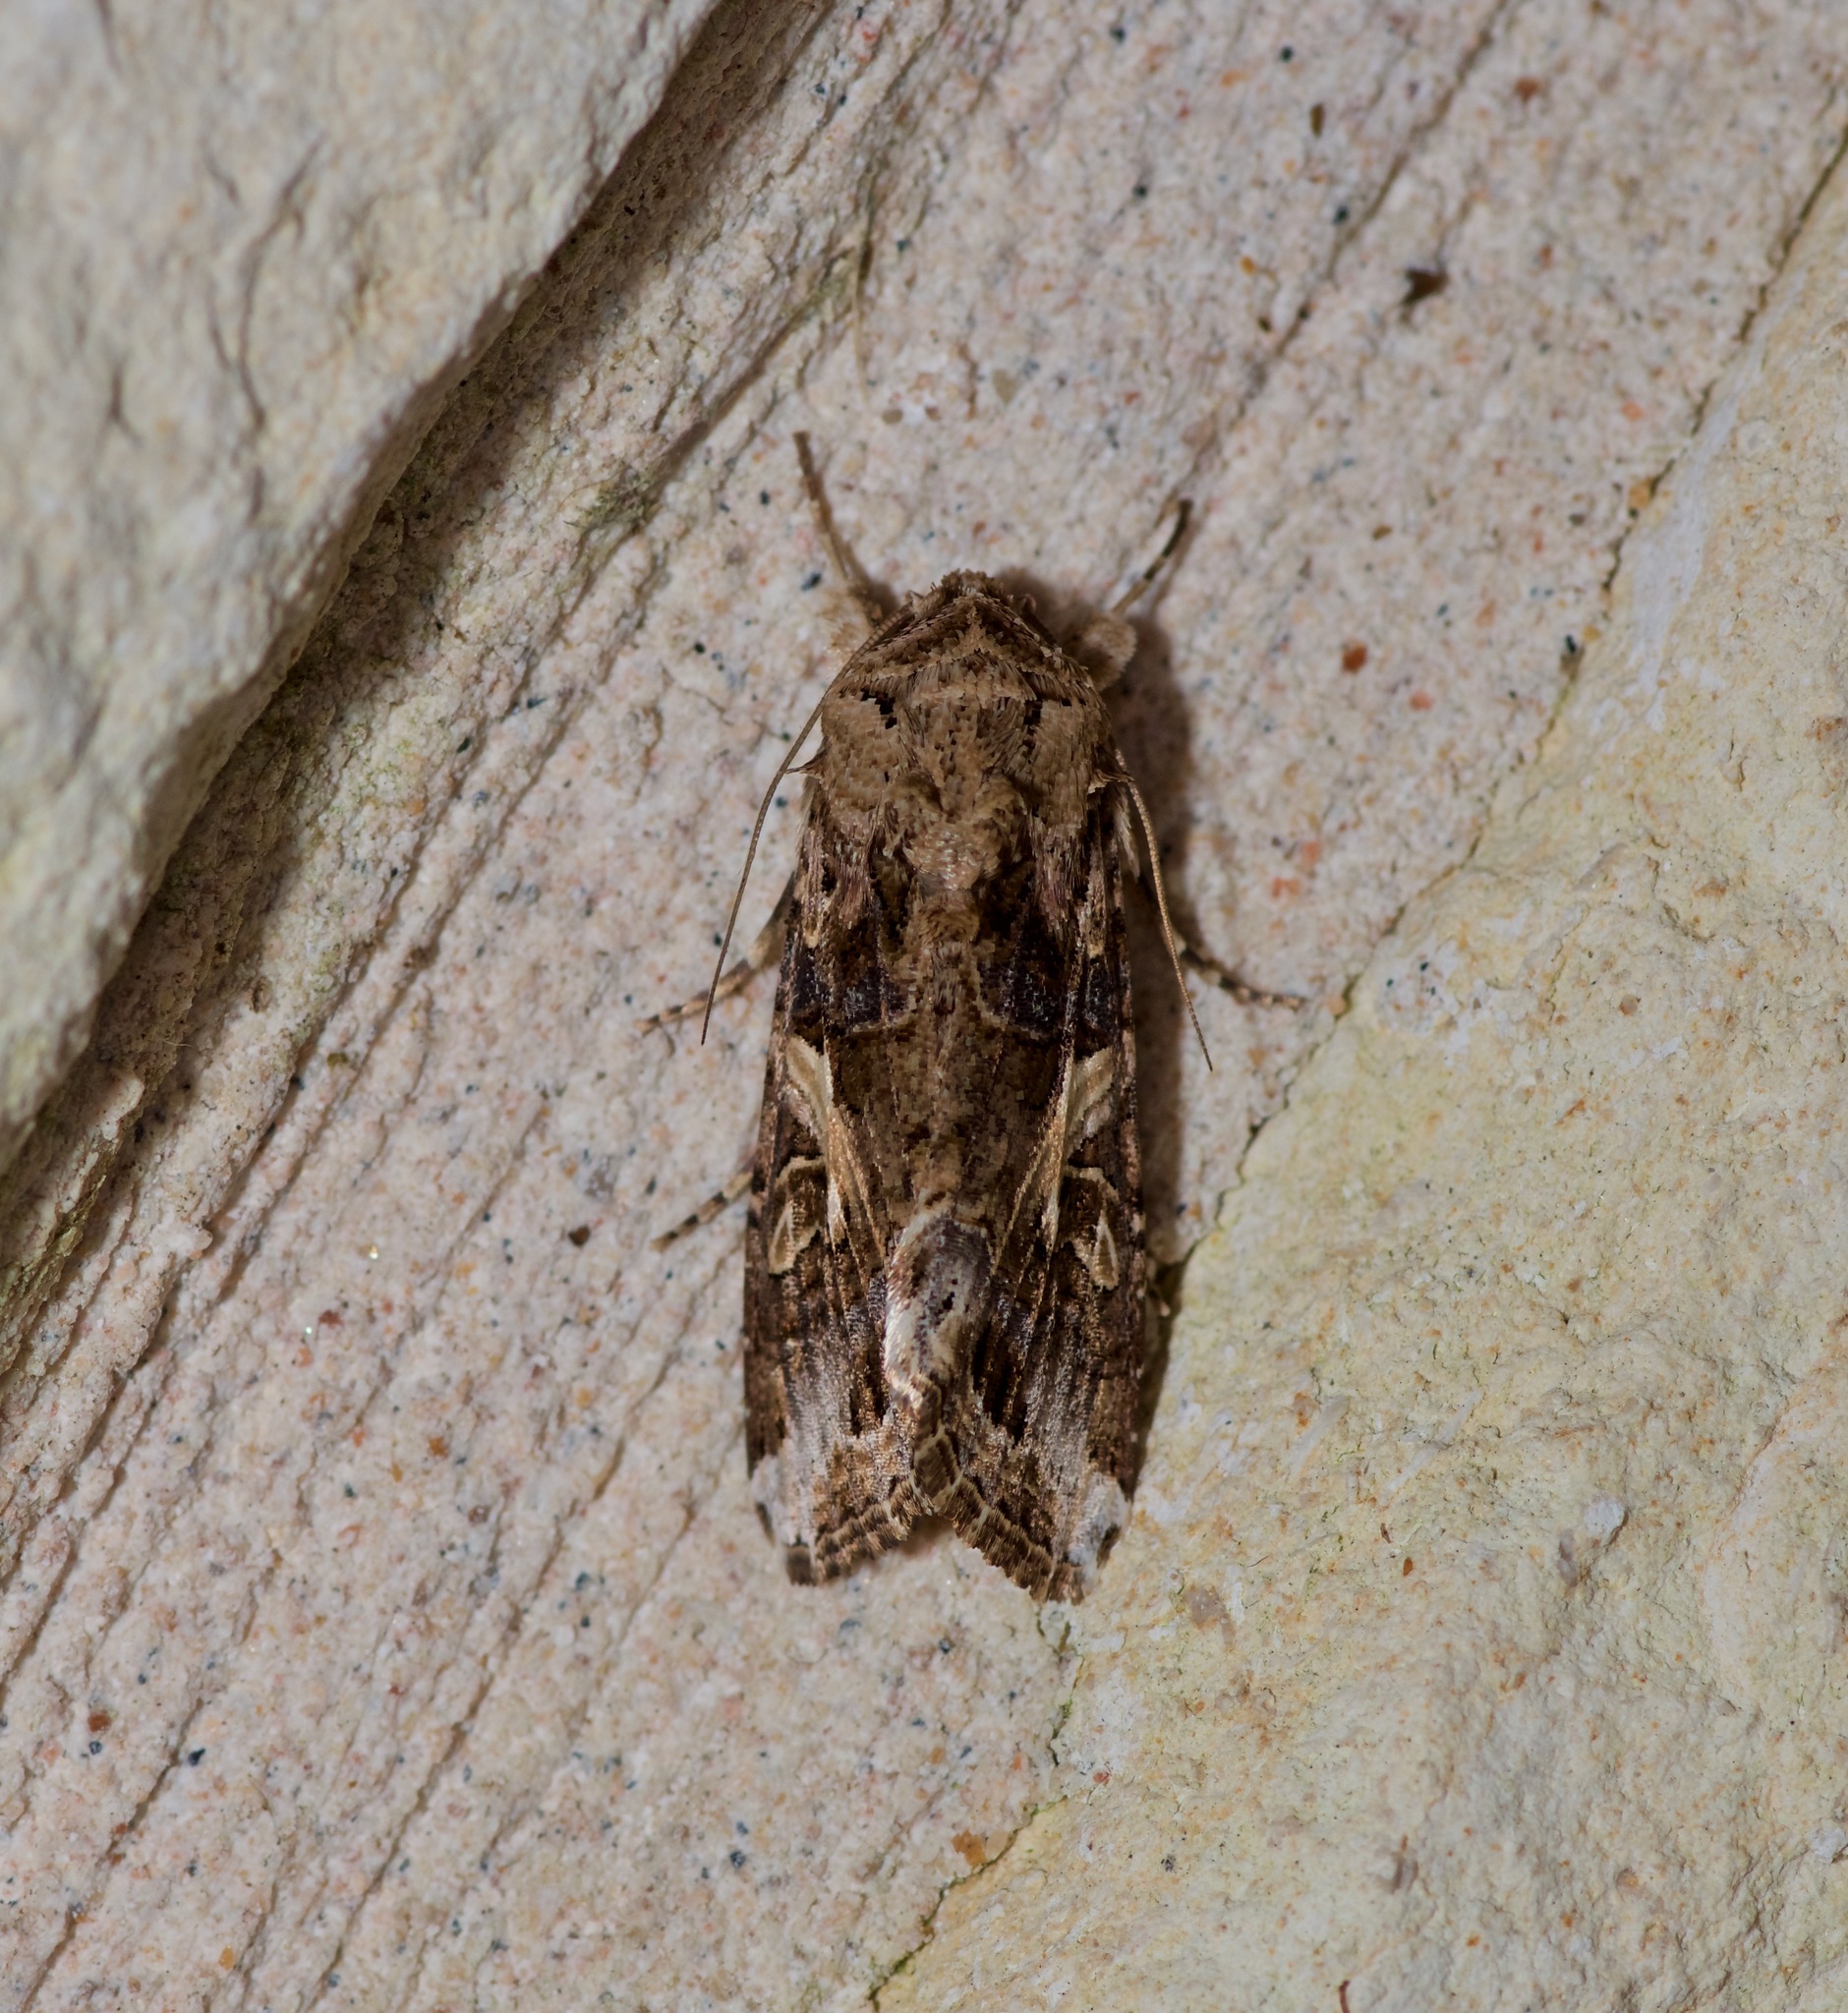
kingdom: Animalia
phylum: Arthropoda
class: Insecta
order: Lepidoptera
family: Noctuidae
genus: Spodoptera
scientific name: Spodoptera ornithogalli
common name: Yellow-striped armyworm
